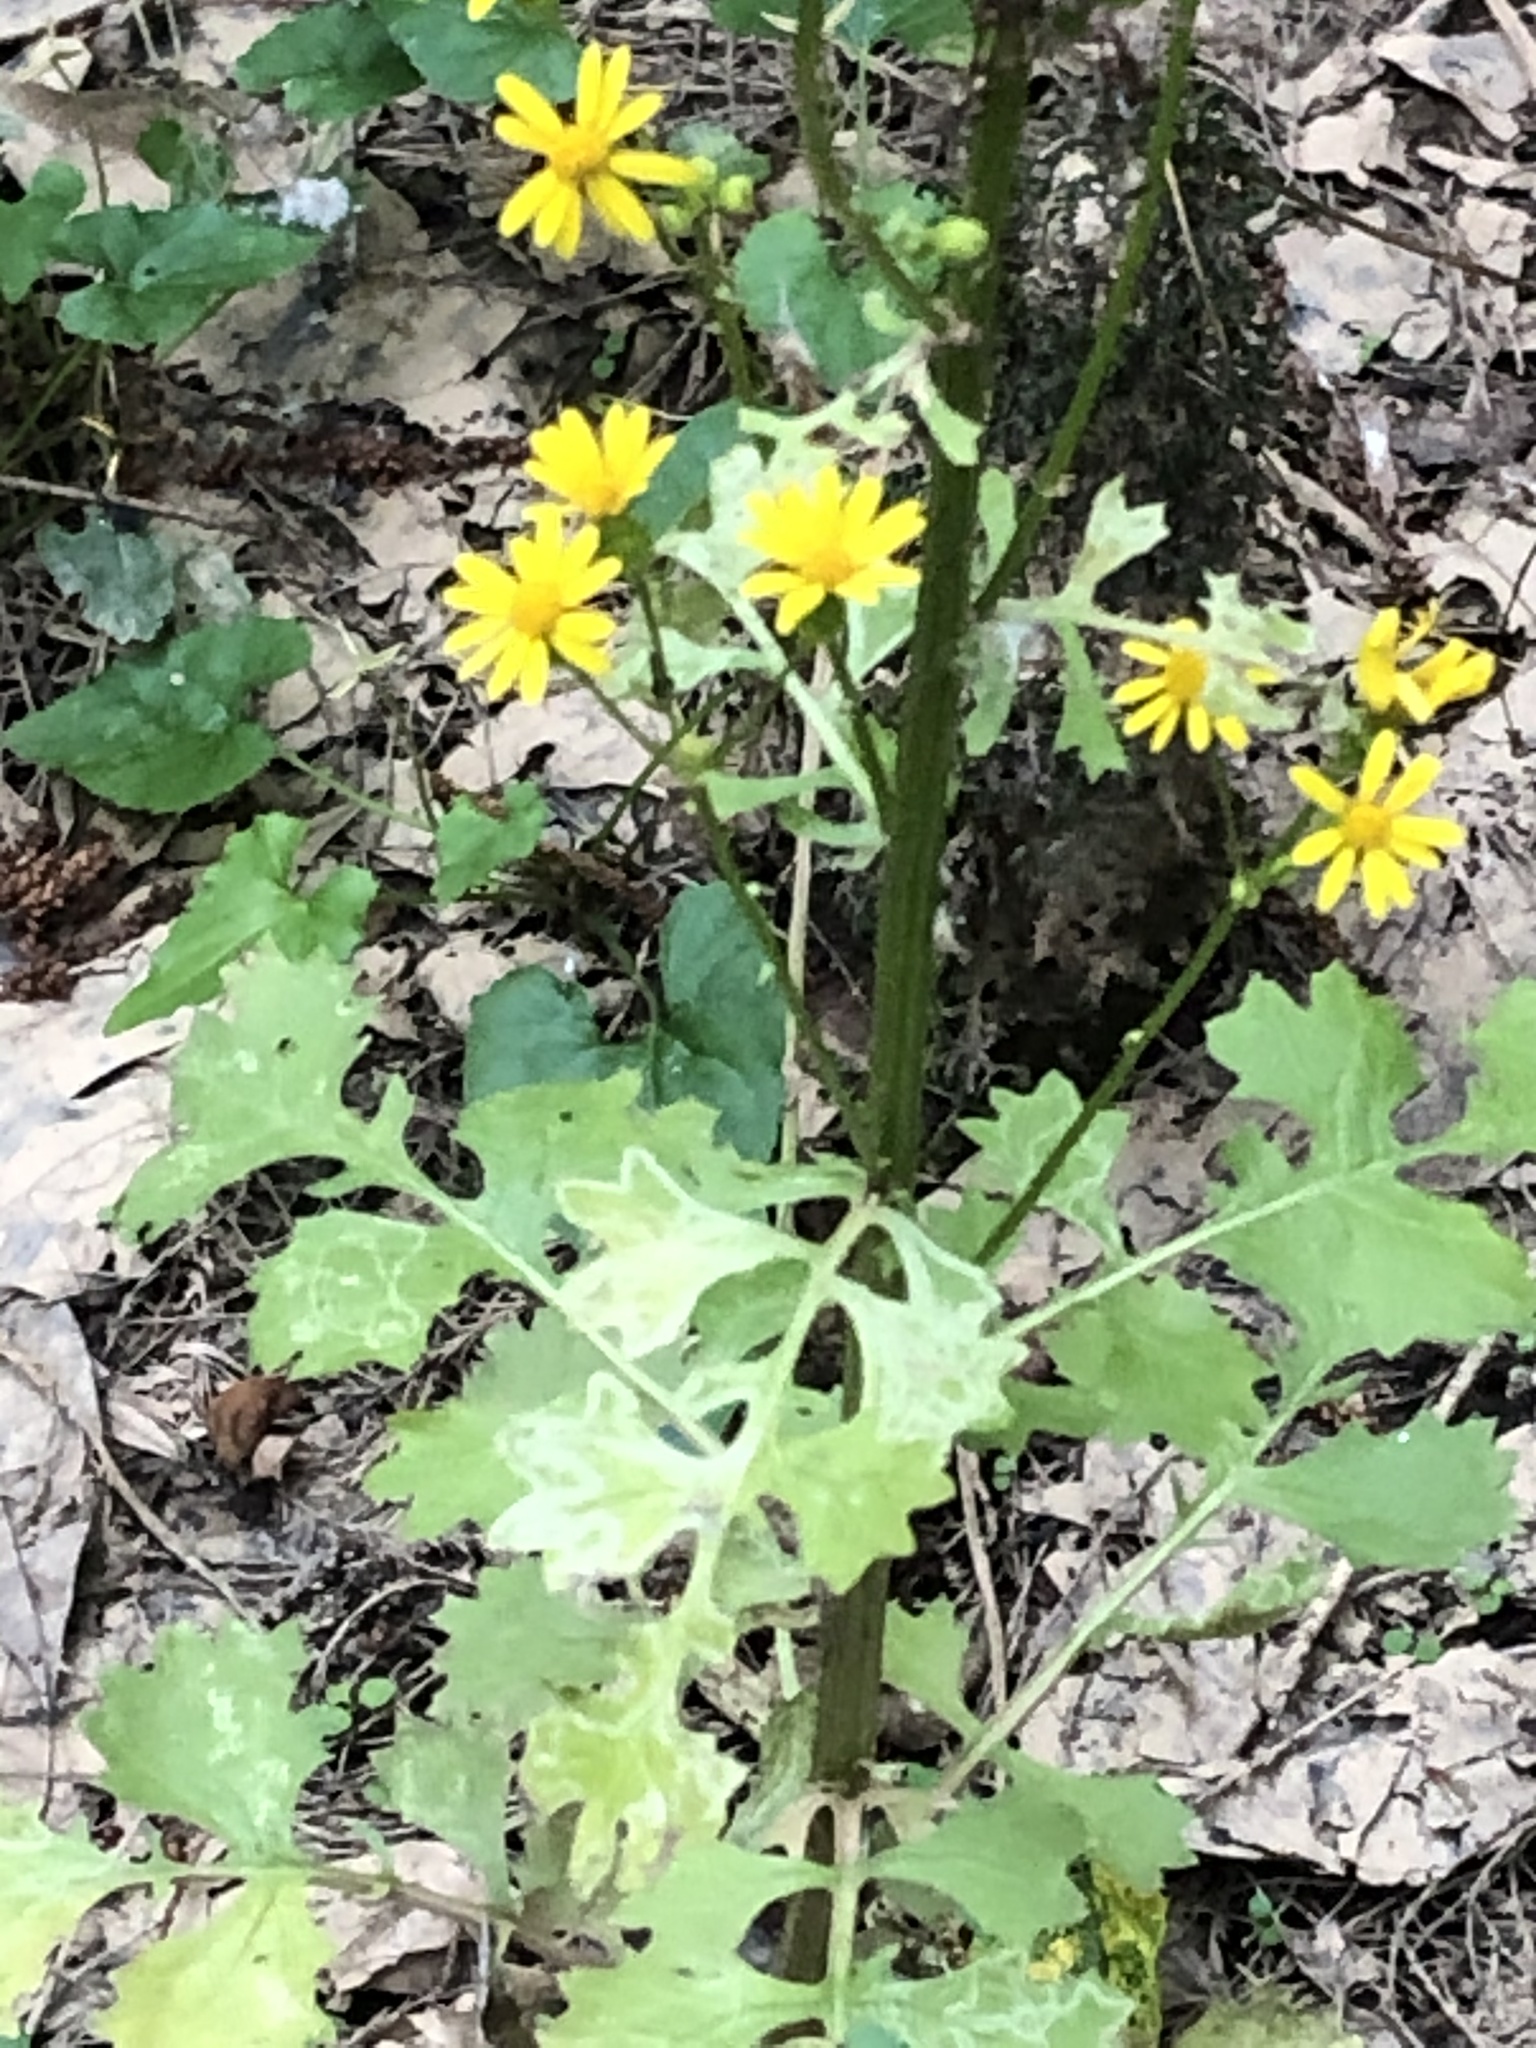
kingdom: Plantae
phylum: Tracheophyta
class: Magnoliopsida
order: Asterales
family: Asteraceae
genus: Packera
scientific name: Packera glabella
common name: Butterweed
